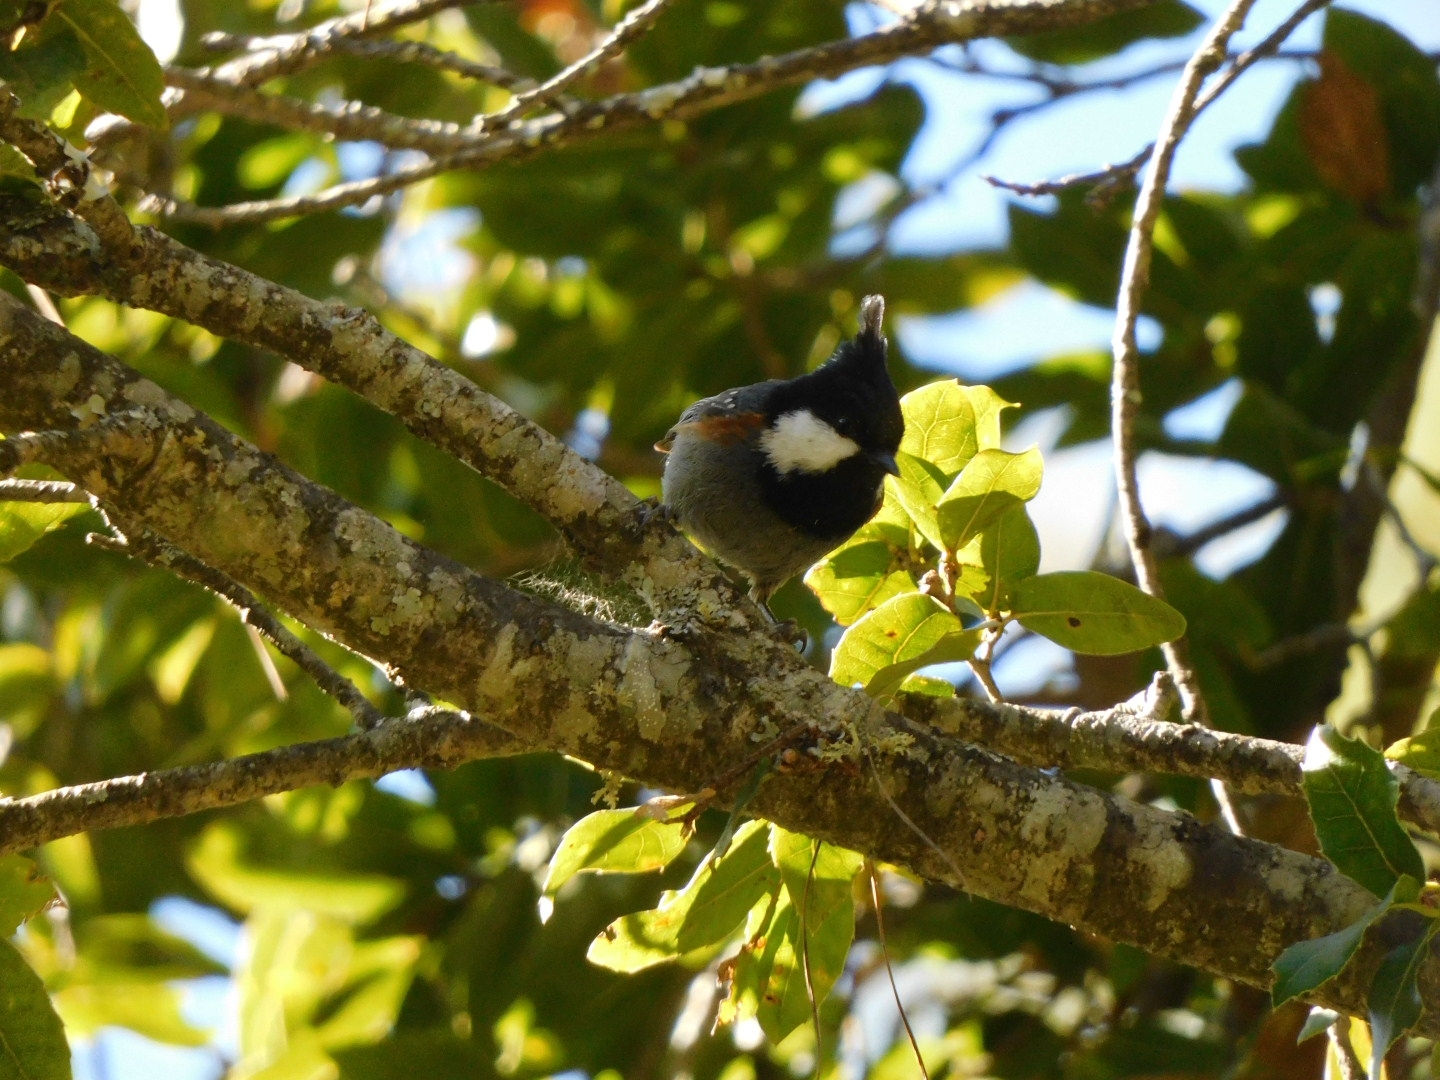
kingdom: Animalia
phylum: Chordata
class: Aves
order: Passeriformes
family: Paridae
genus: Periparus
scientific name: Periparus ater
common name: Coal tit
